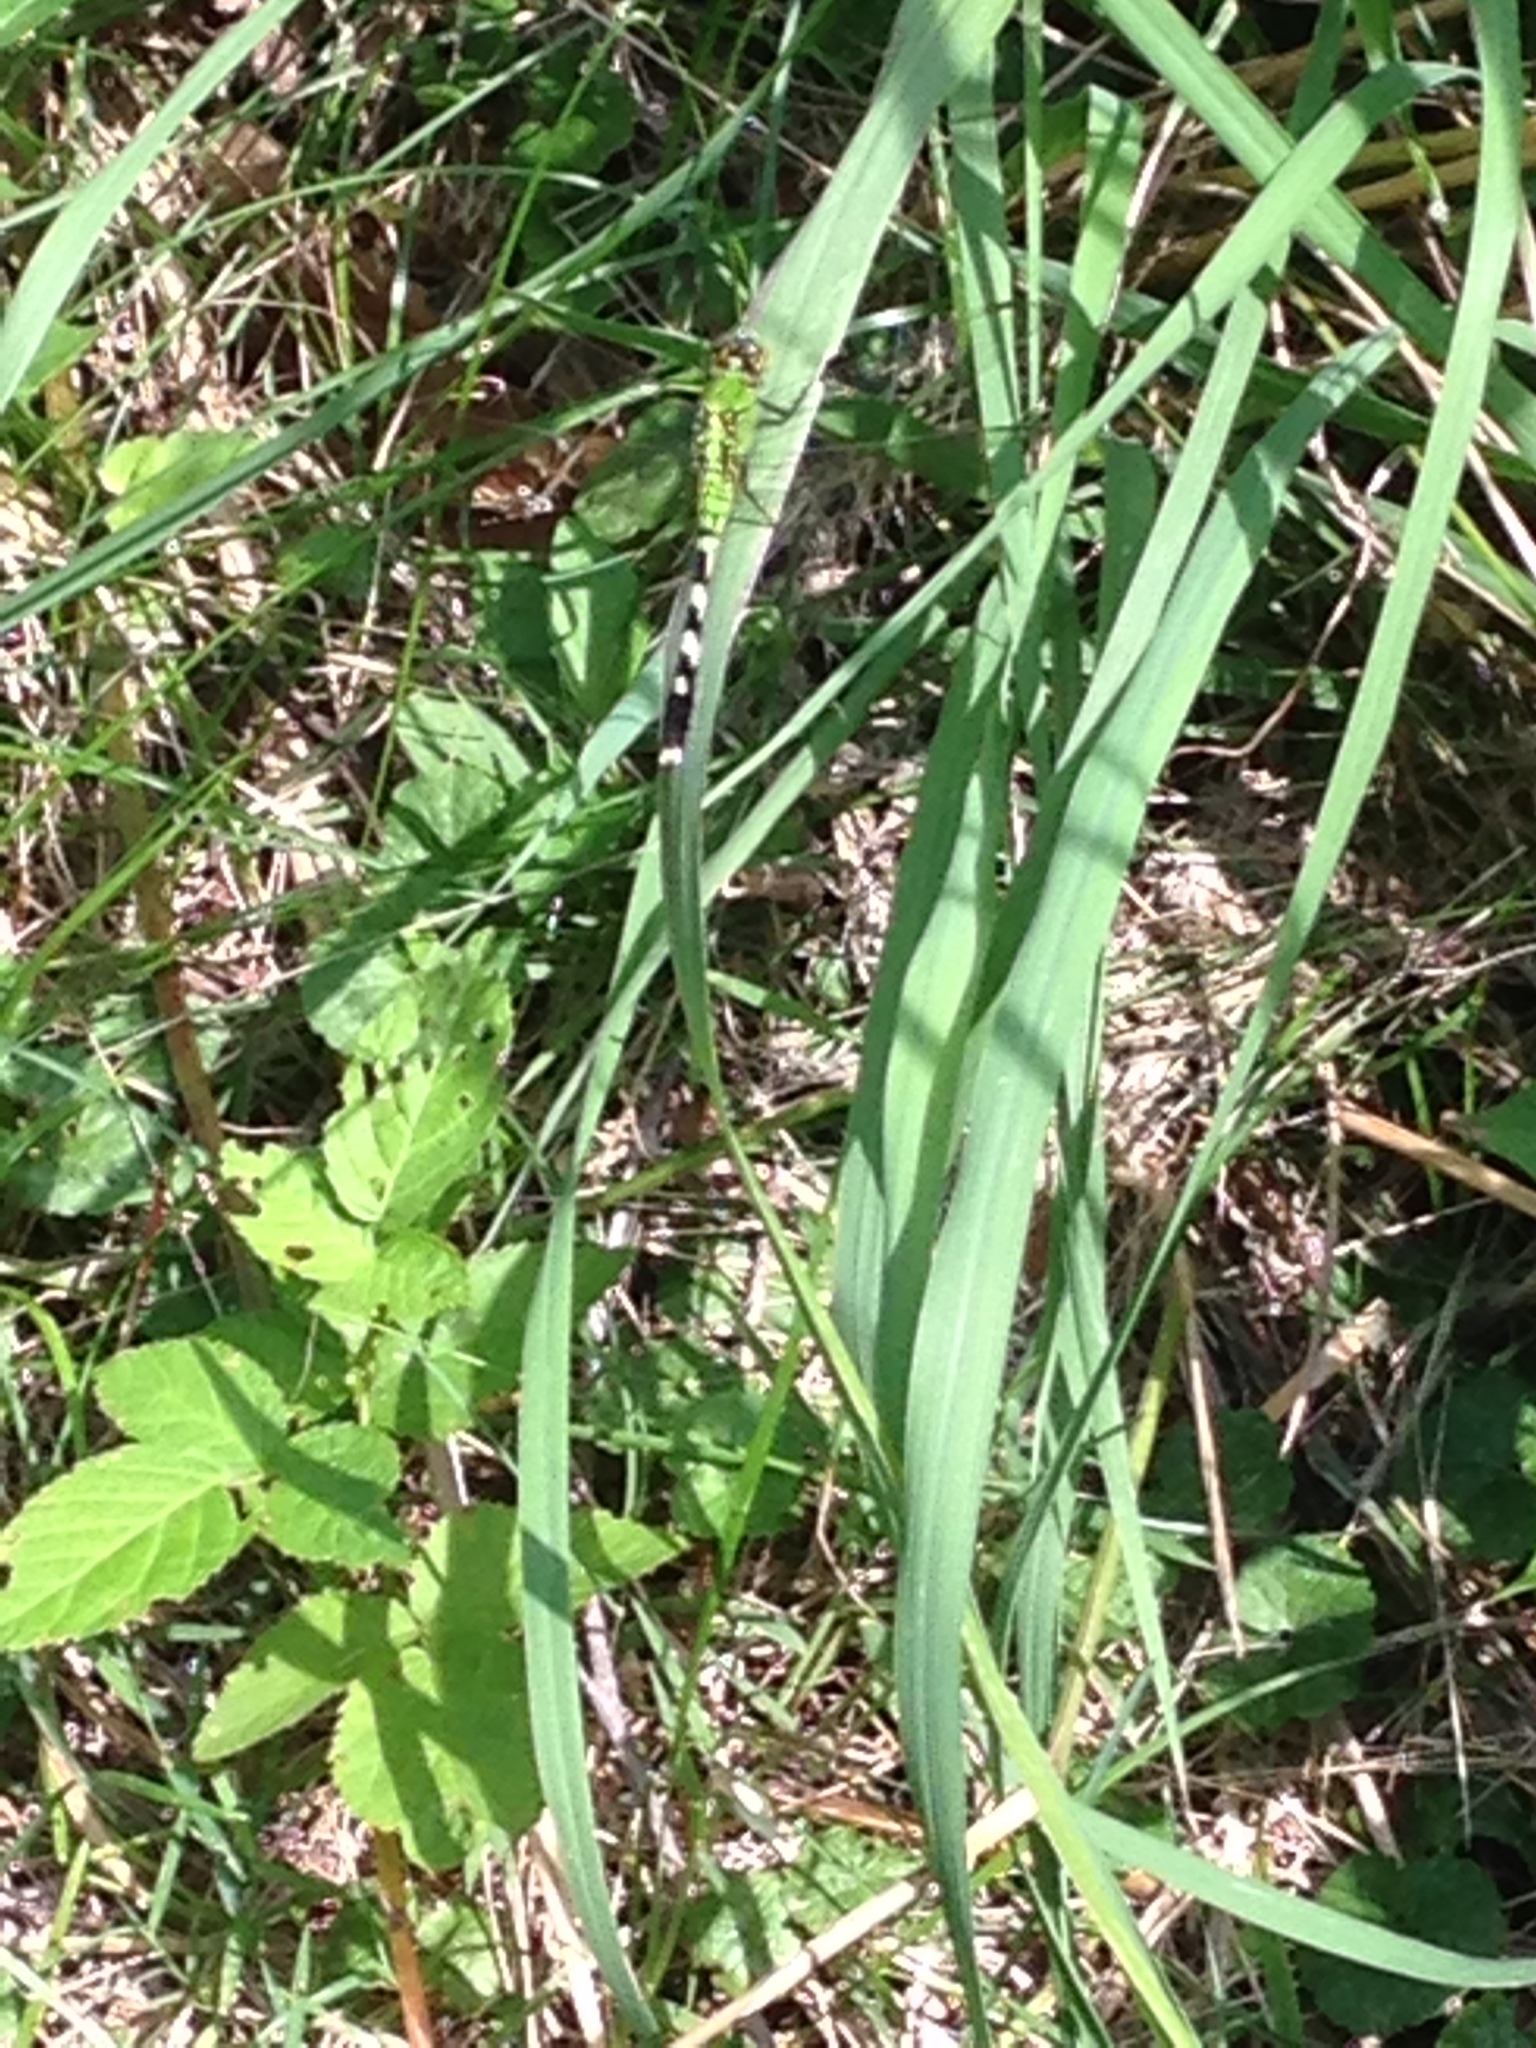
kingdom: Animalia
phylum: Arthropoda
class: Insecta
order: Odonata
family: Libellulidae
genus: Erythemis
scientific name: Erythemis simplicicollis
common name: Eastern pondhawk
